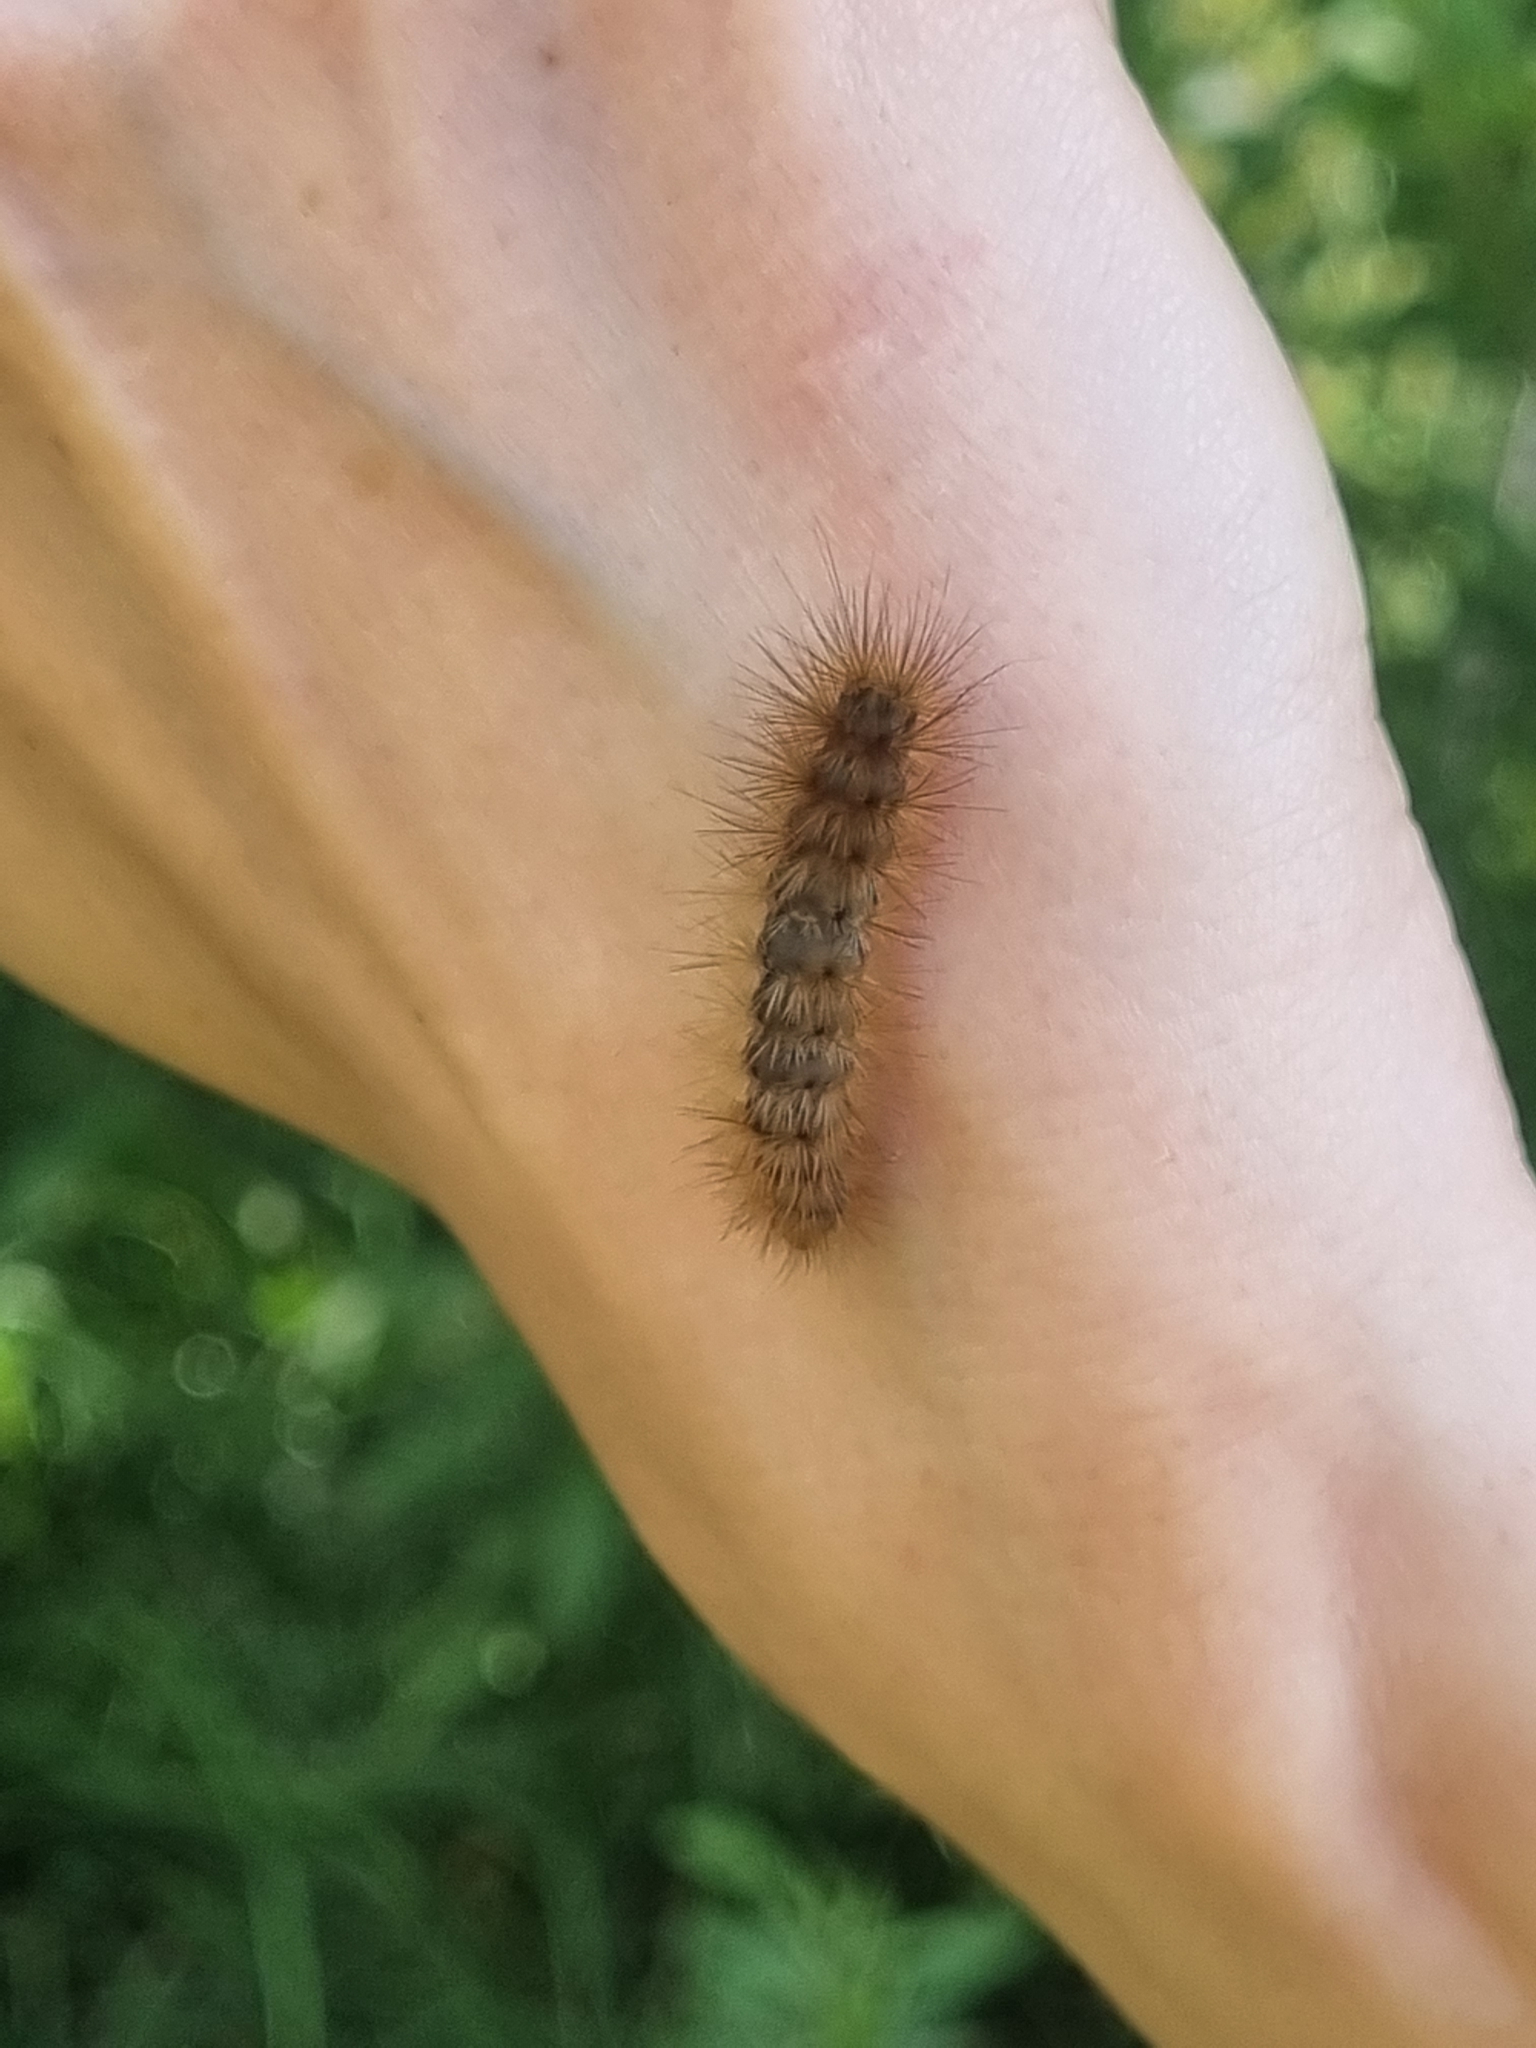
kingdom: Animalia
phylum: Arthropoda
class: Insecta
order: Lepidoptera
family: Erebidae
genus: Phragmatobia
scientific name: Phragmatobia fuliginosa
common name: Ruby tiger
